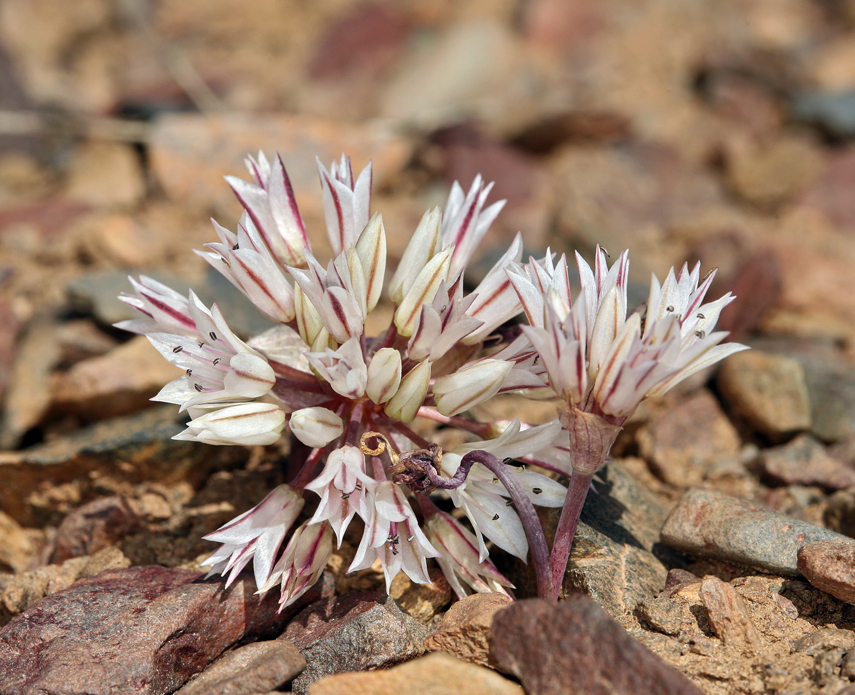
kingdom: Plantae
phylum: Tracheophyta
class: Liliopsida
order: Asparagales
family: Amaryllidaceae
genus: Allium
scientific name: Allium atrorubens
